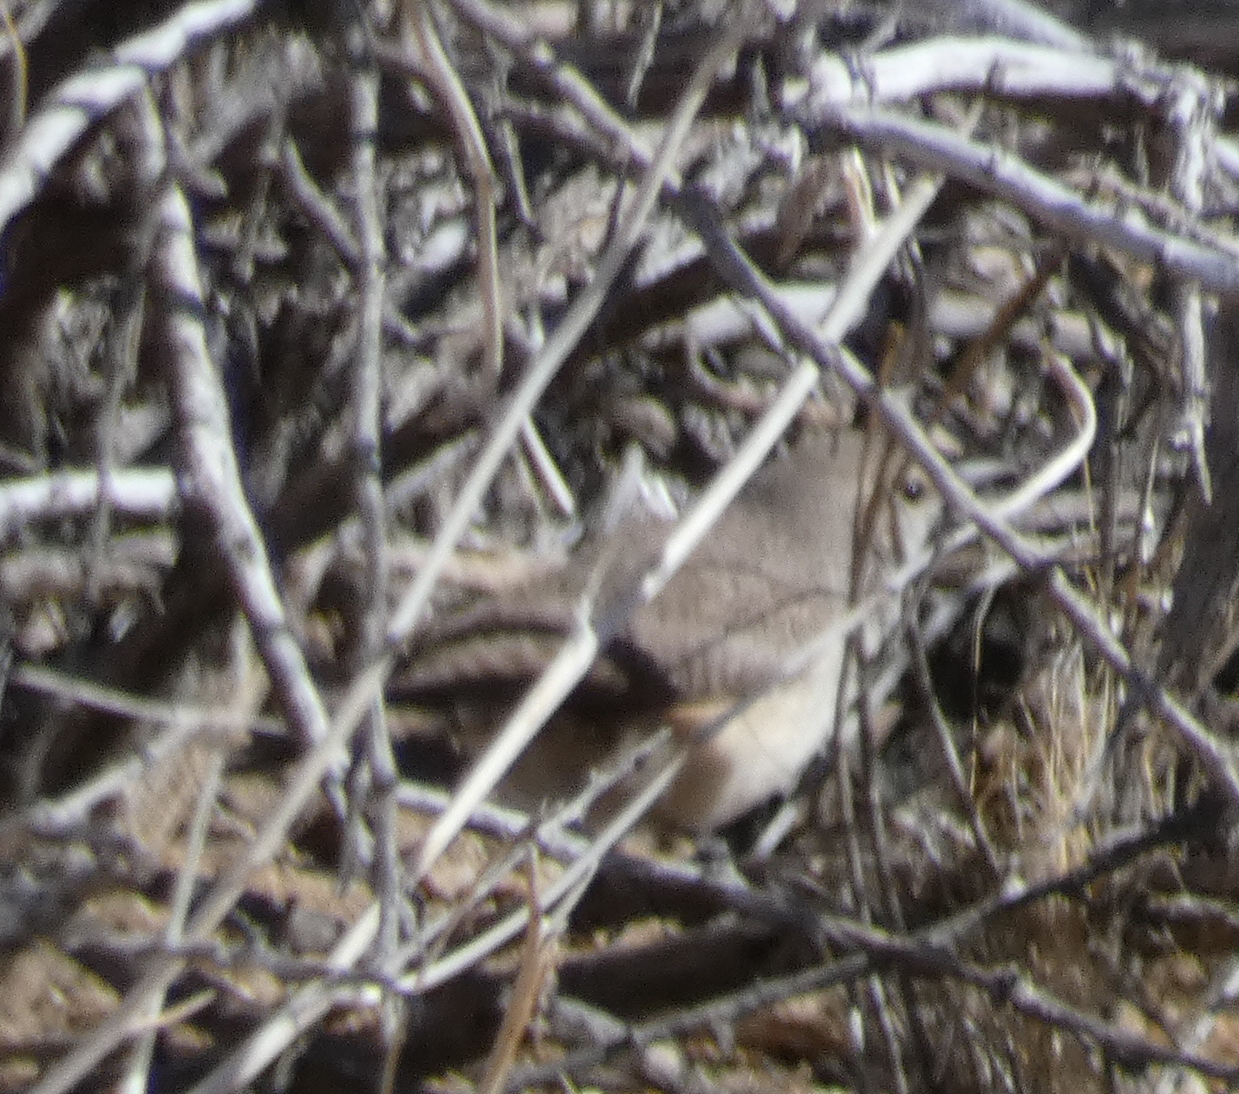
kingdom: Animalia
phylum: Chordata
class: Aves
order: Passeriformes
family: Troglodytidae
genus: Salpinctes
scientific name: Salpinctes obsoletus
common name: Rock wren
